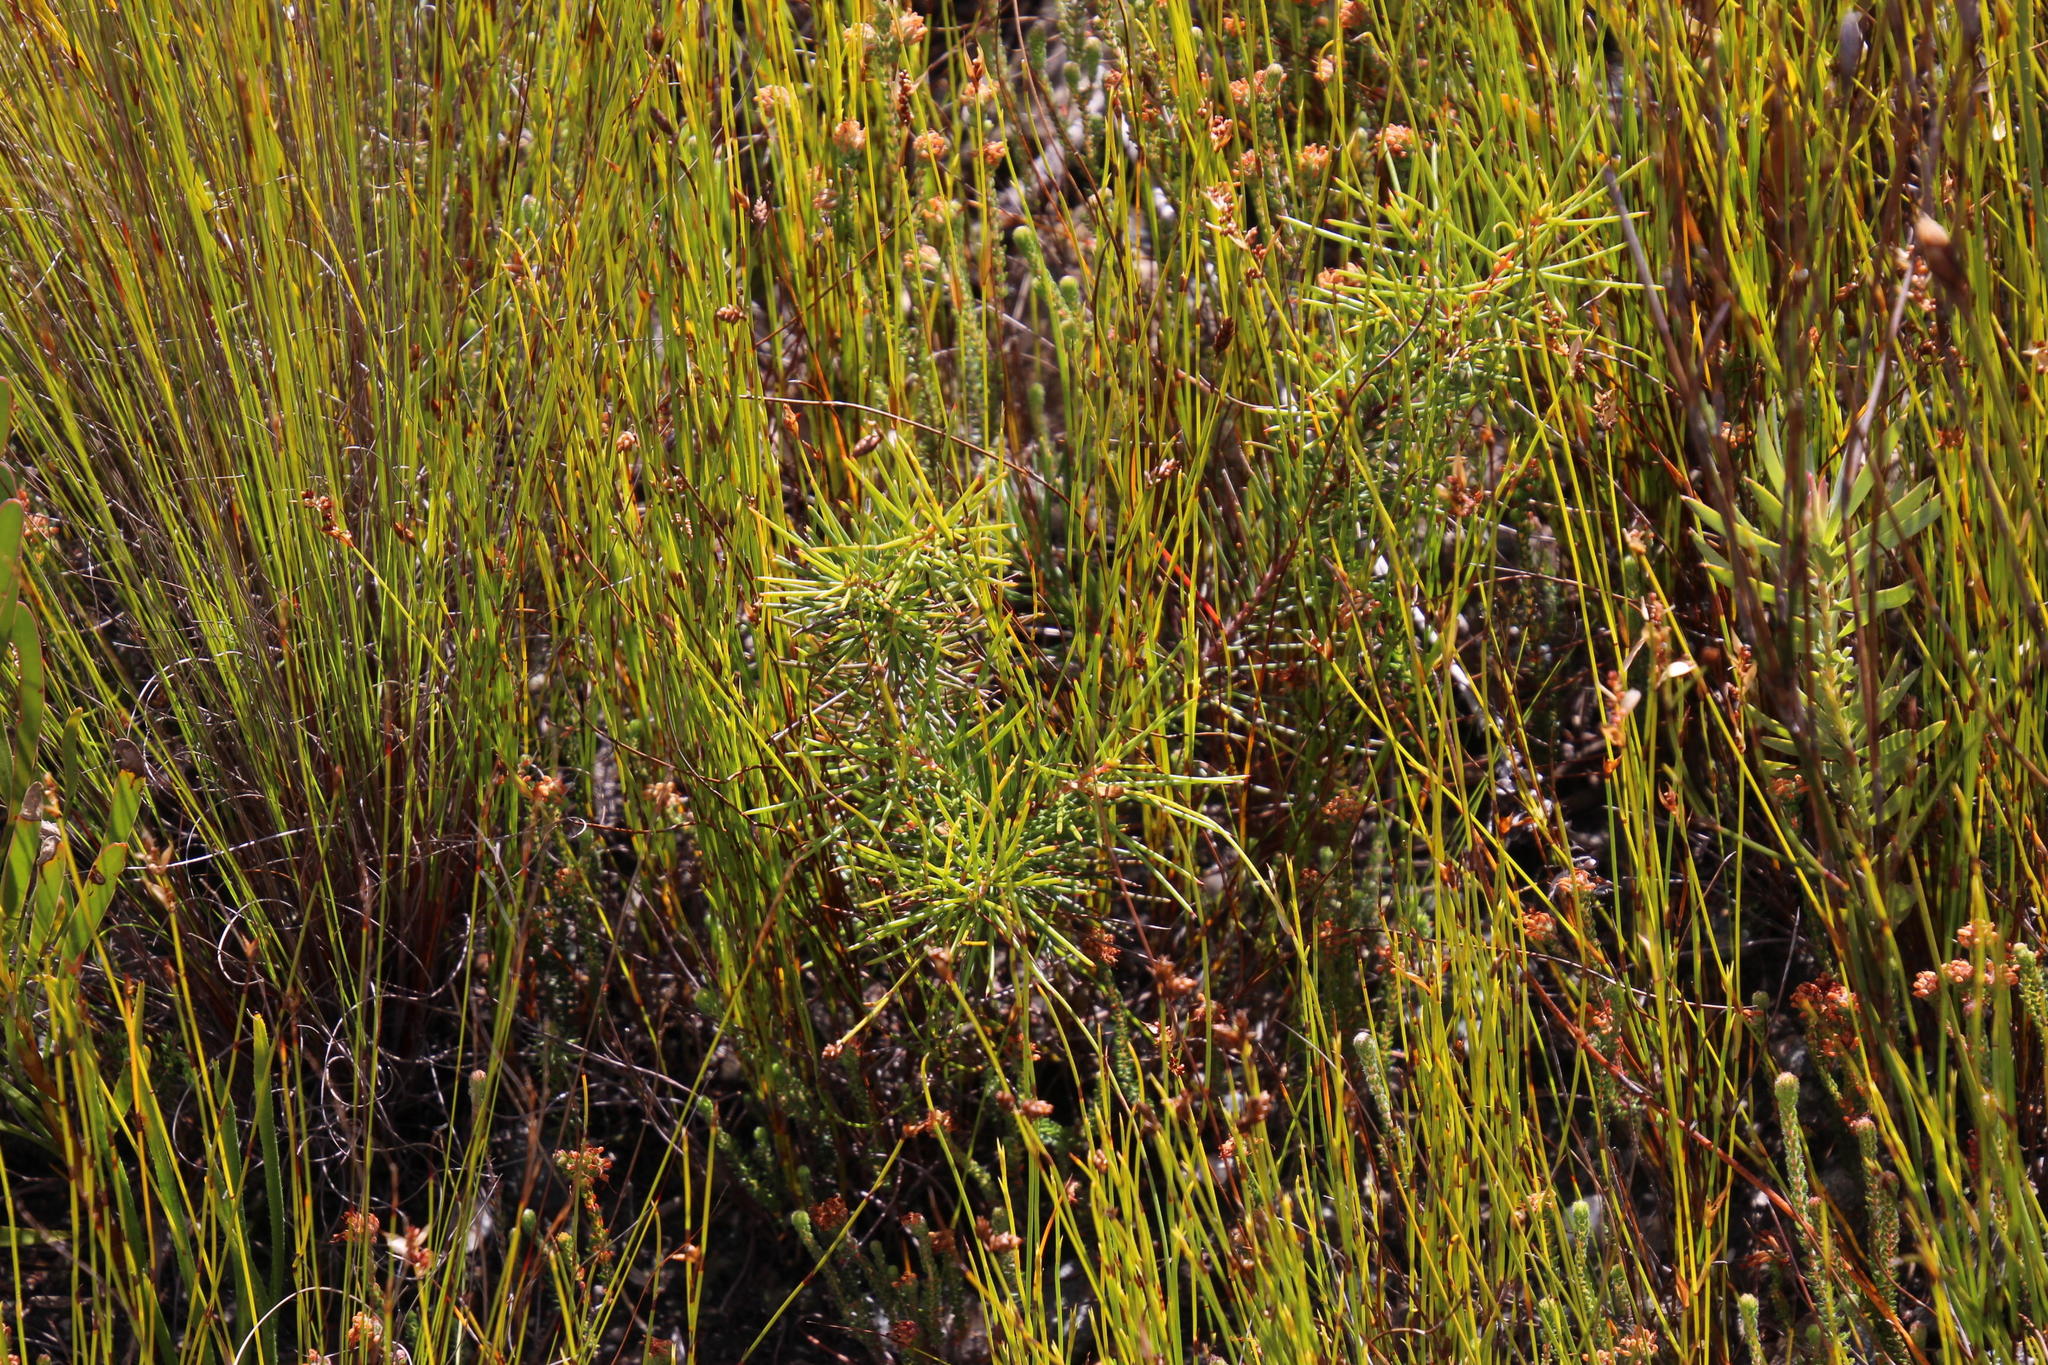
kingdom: Plantae
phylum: Tracheophyta
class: Magnoliopsida
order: Proteales
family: Proteaceae
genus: Hakea
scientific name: Hakea sericea
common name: Needle bush
